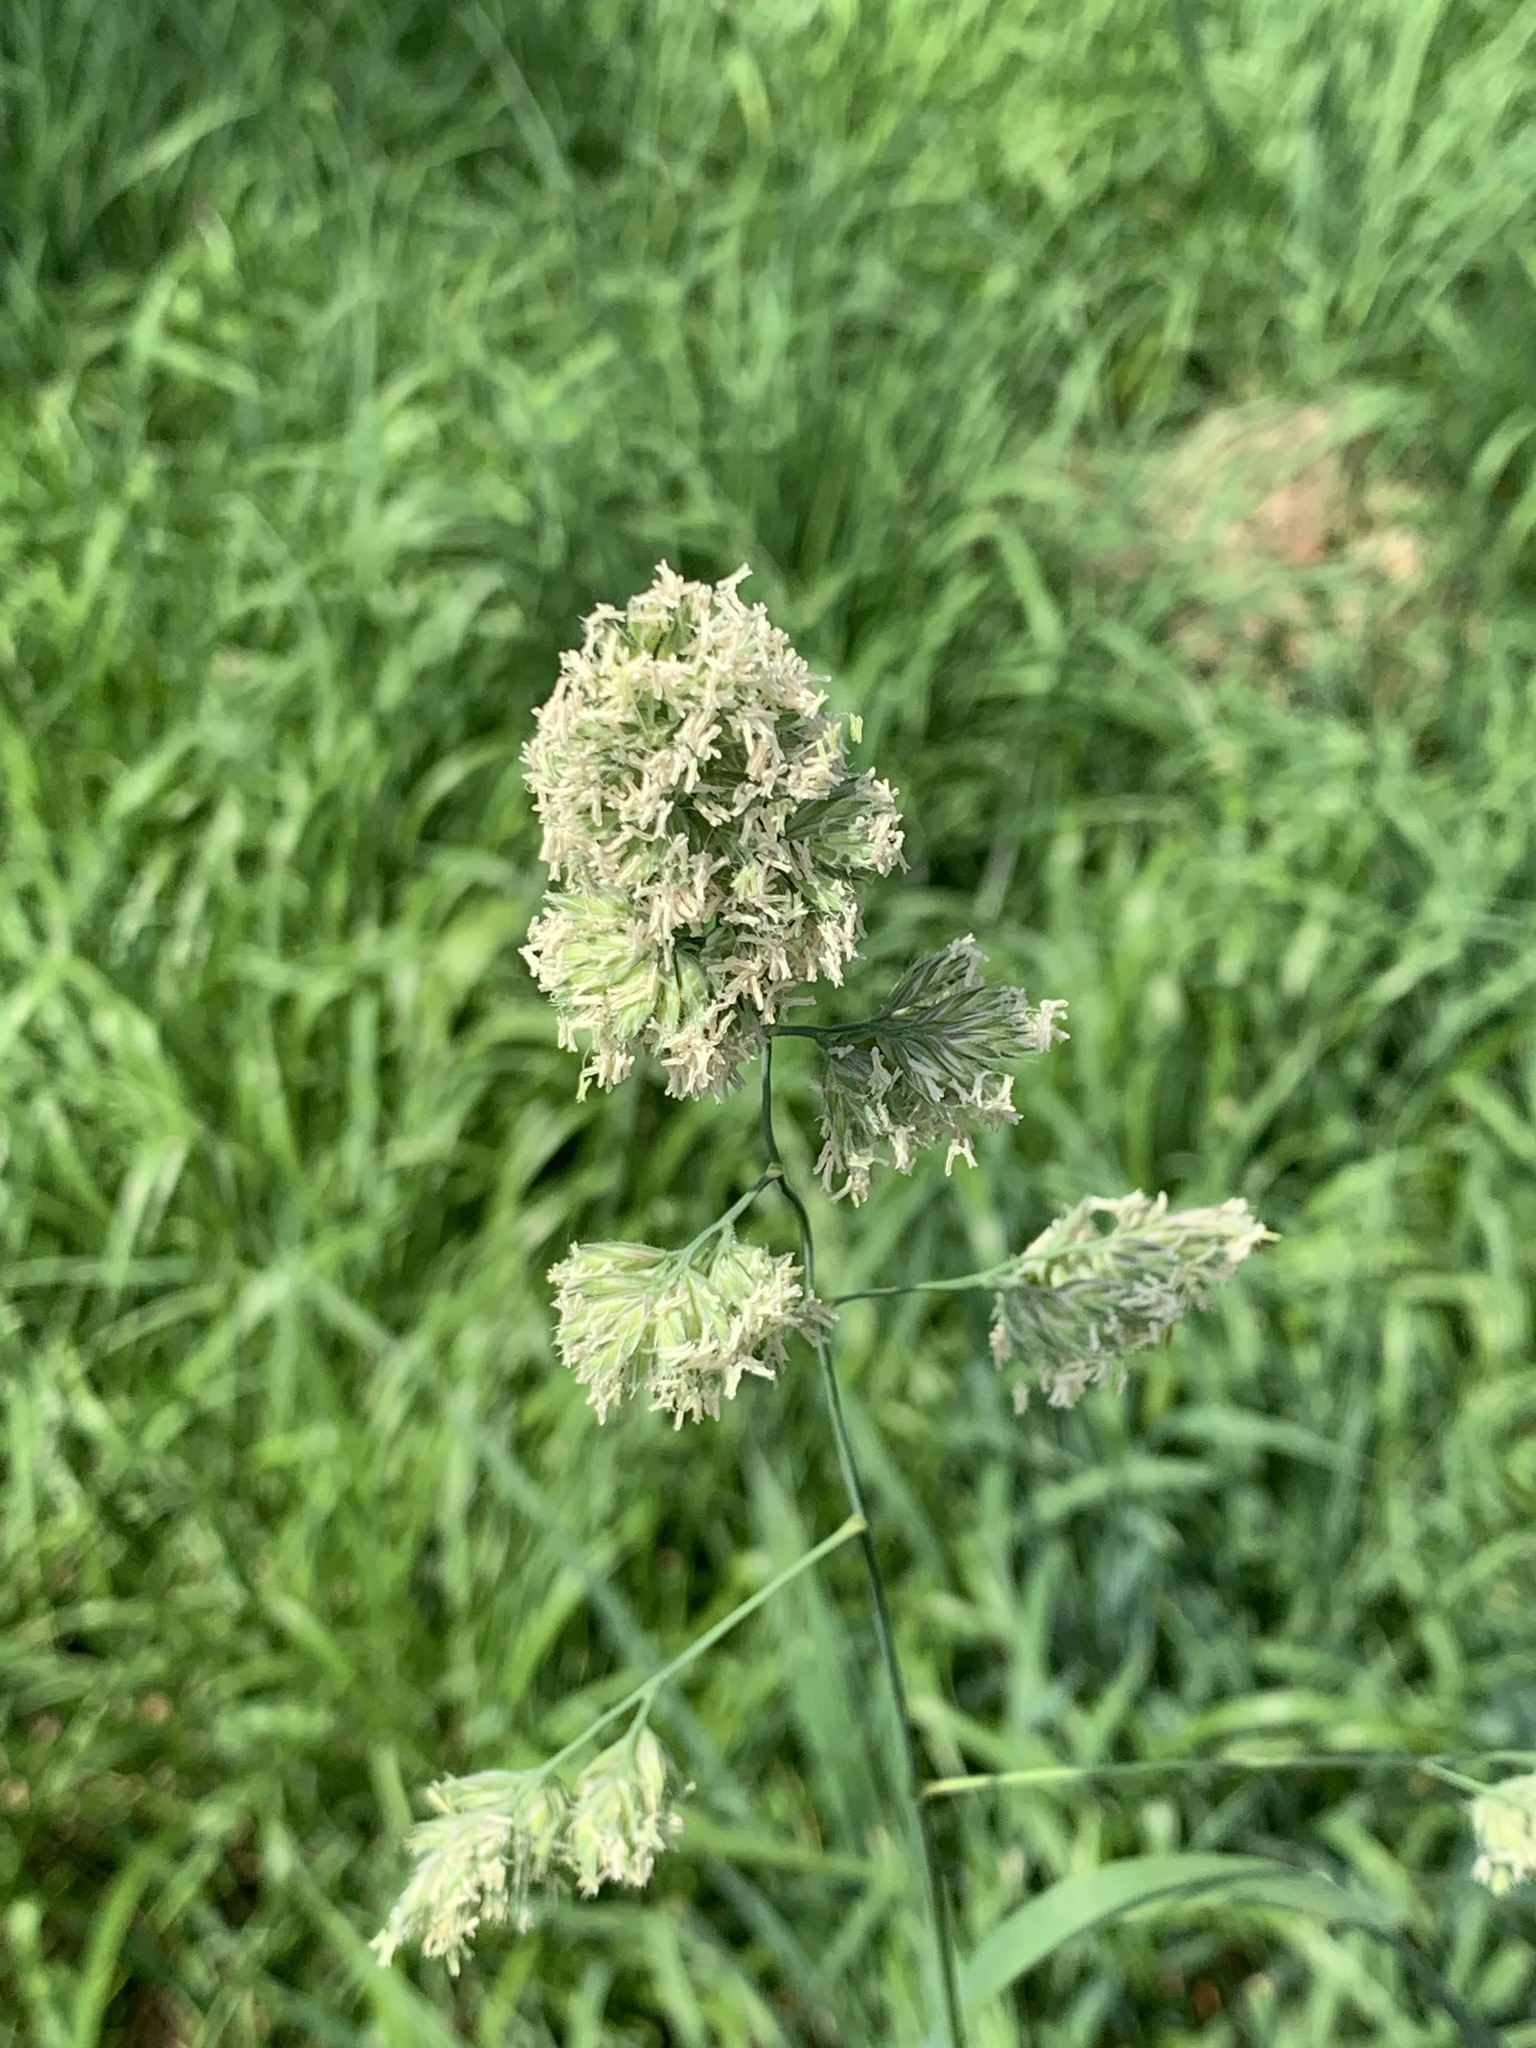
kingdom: Plantae
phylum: Tracheophyta
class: Liliopsida
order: Poales
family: Poaceae
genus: Dactylis
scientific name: Dactylis glomerata
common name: Orchardgrass
